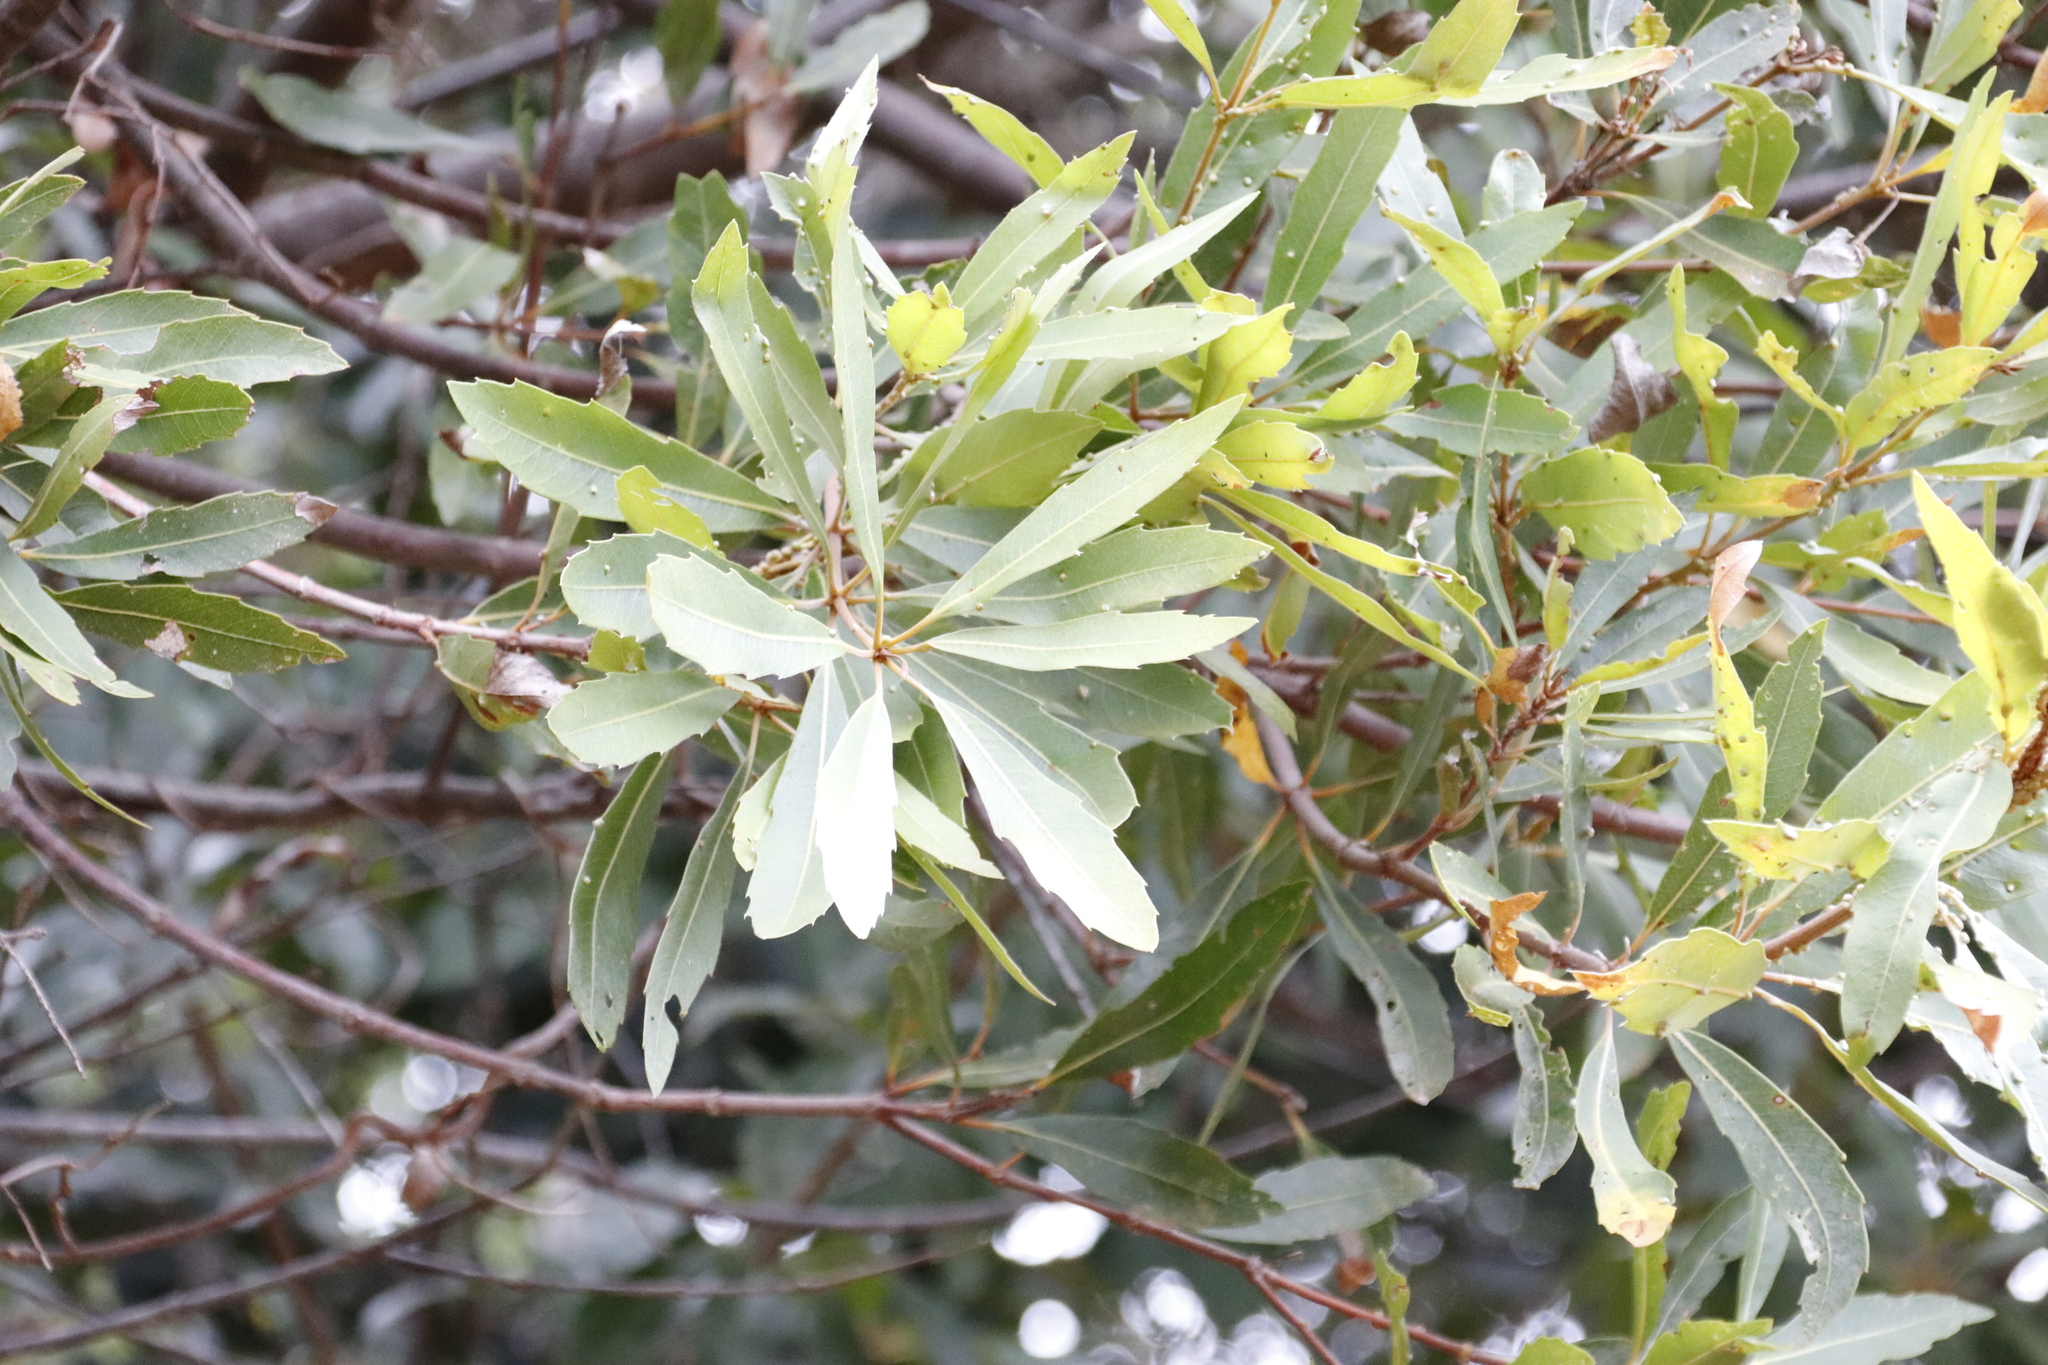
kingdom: Plantae
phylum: Tracheophyta
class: Magnoliopsida
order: Proteales
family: Proteaceae
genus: Brabejum
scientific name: Brabejum stellatifolium
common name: Wild almond
